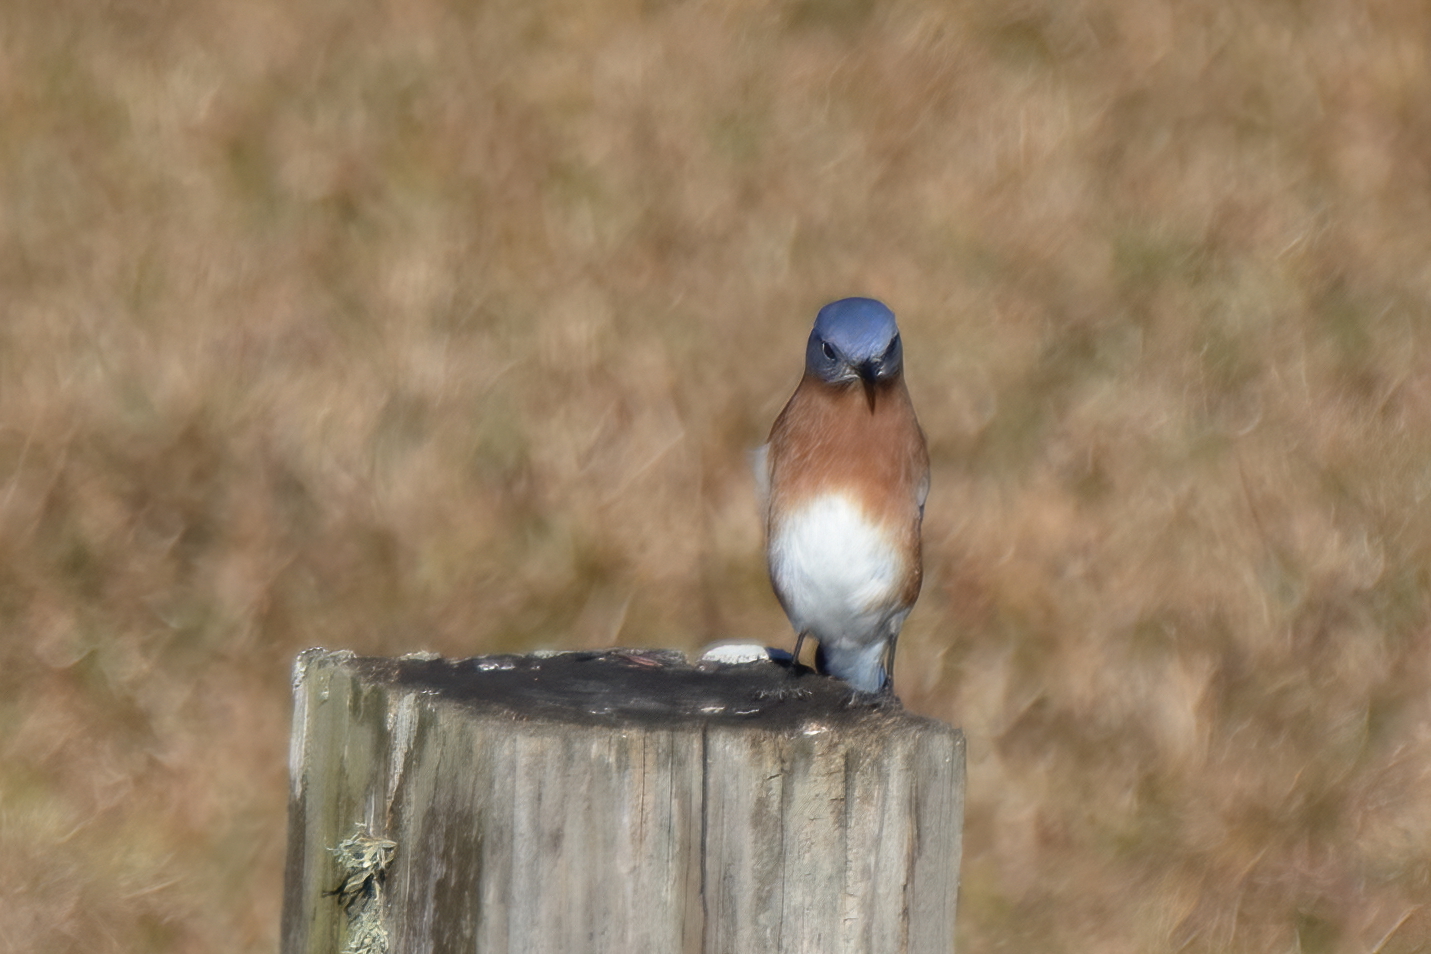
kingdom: Animalia
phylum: Chordata
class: Aves
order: Passeriformes
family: Turdidae
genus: Sialia
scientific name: Sialia sialis
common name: Eastern bluebird
